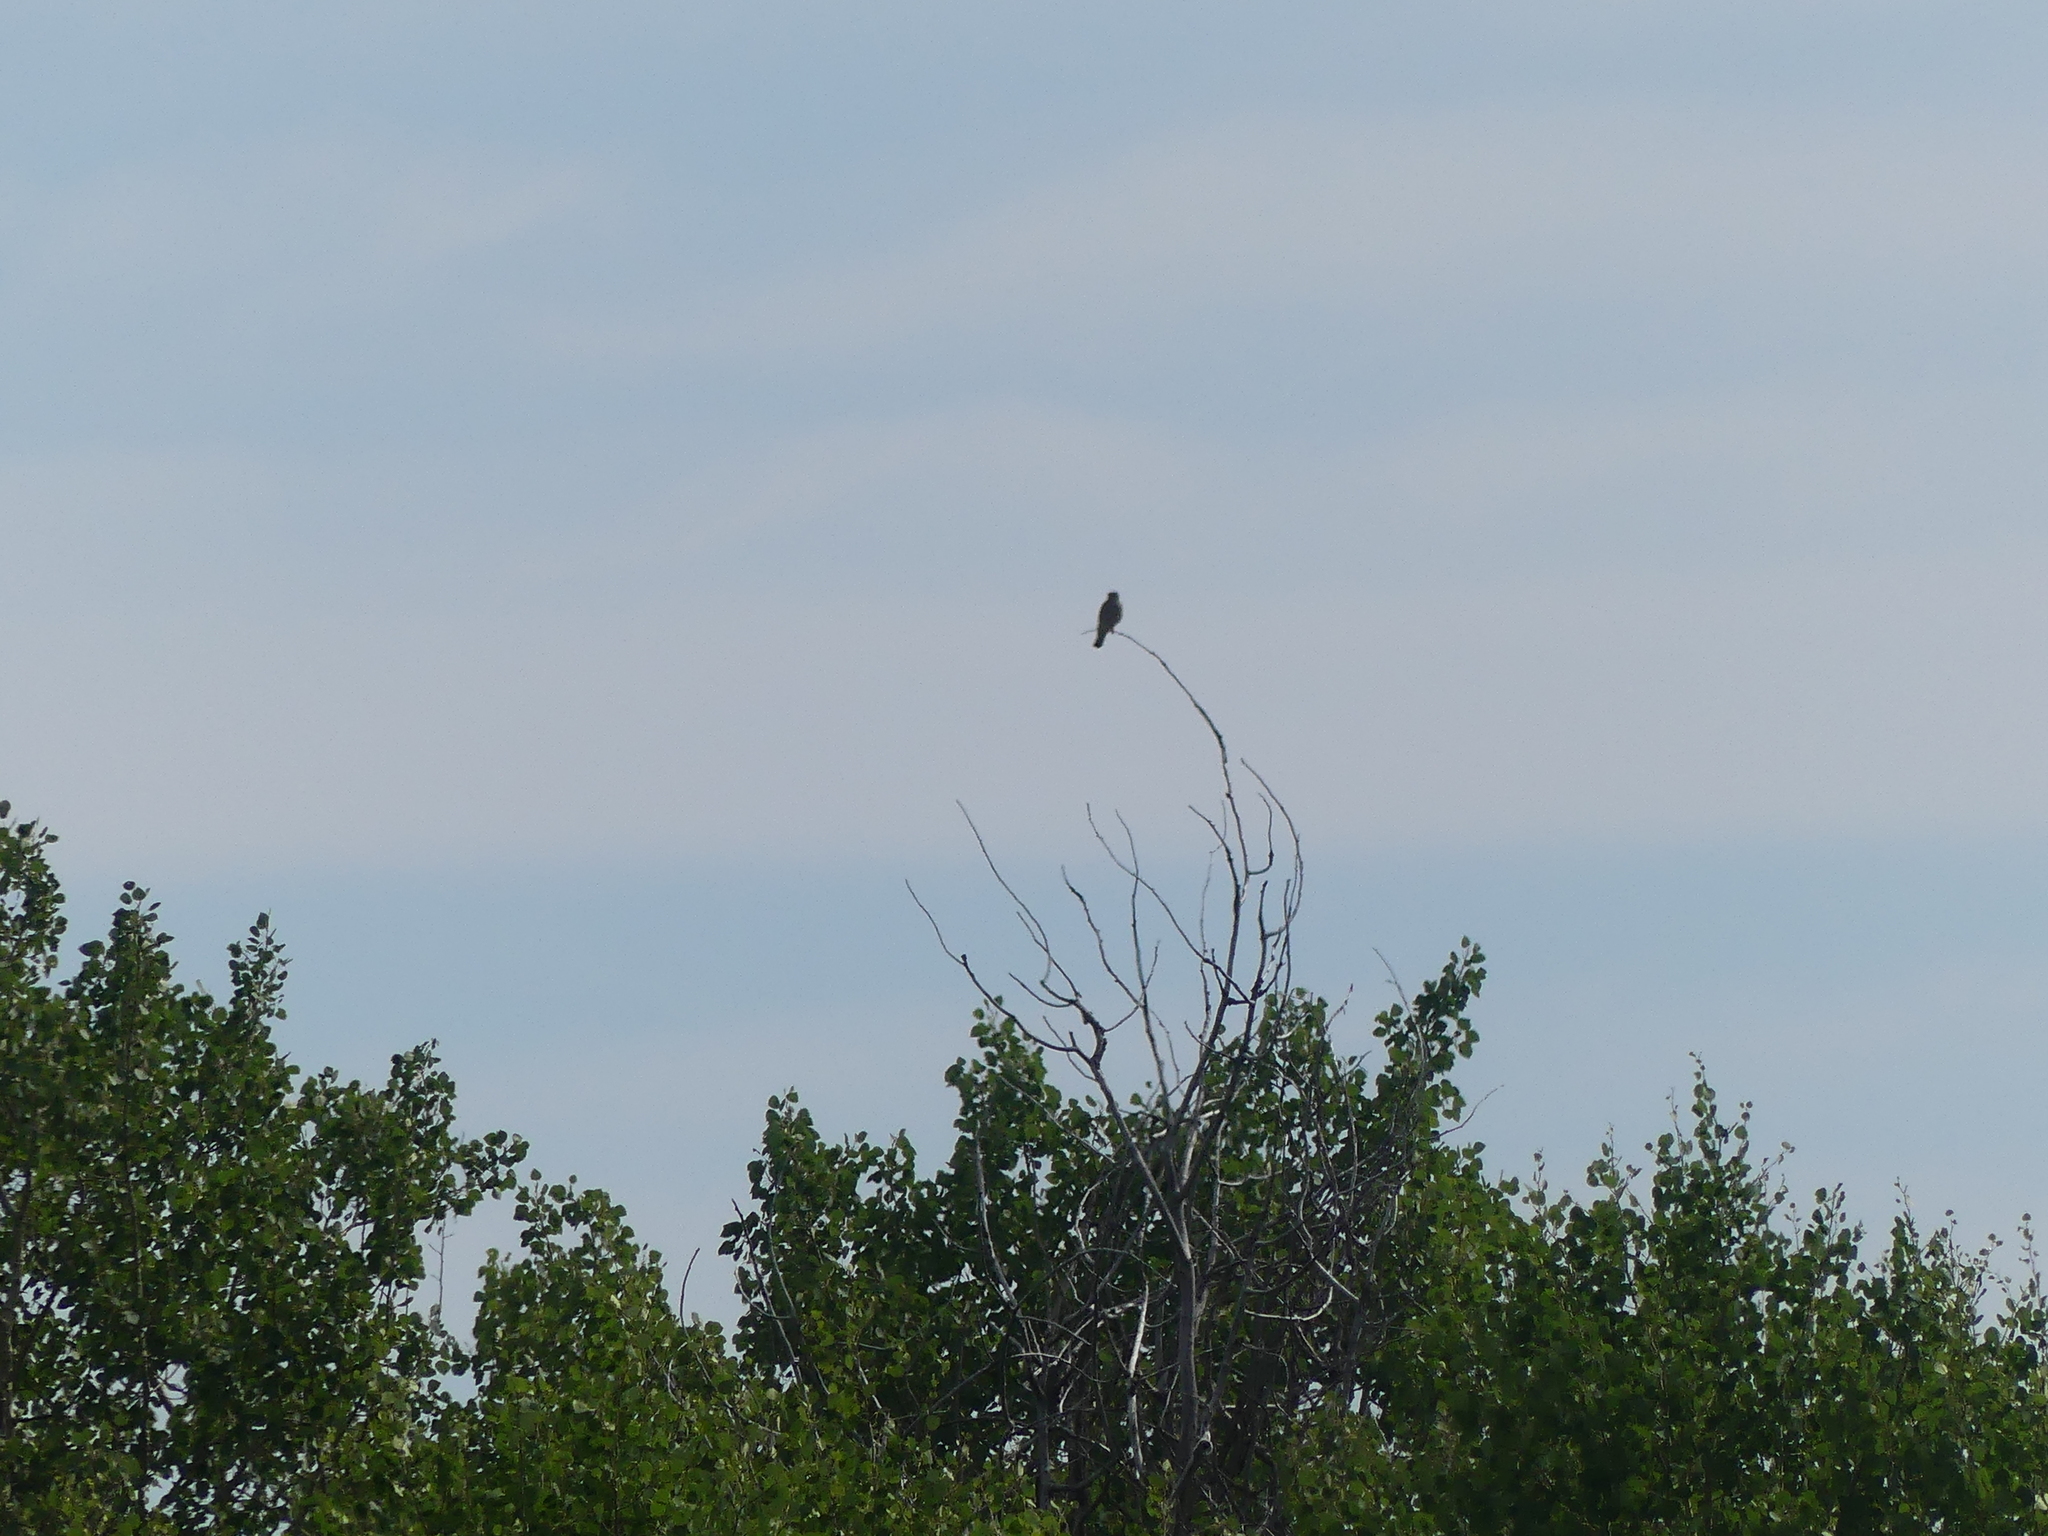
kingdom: Animalia
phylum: Chordata
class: Aves
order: Falconiformes
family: Falconidae
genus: Falco
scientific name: Falco sparverius
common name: American kestrel
